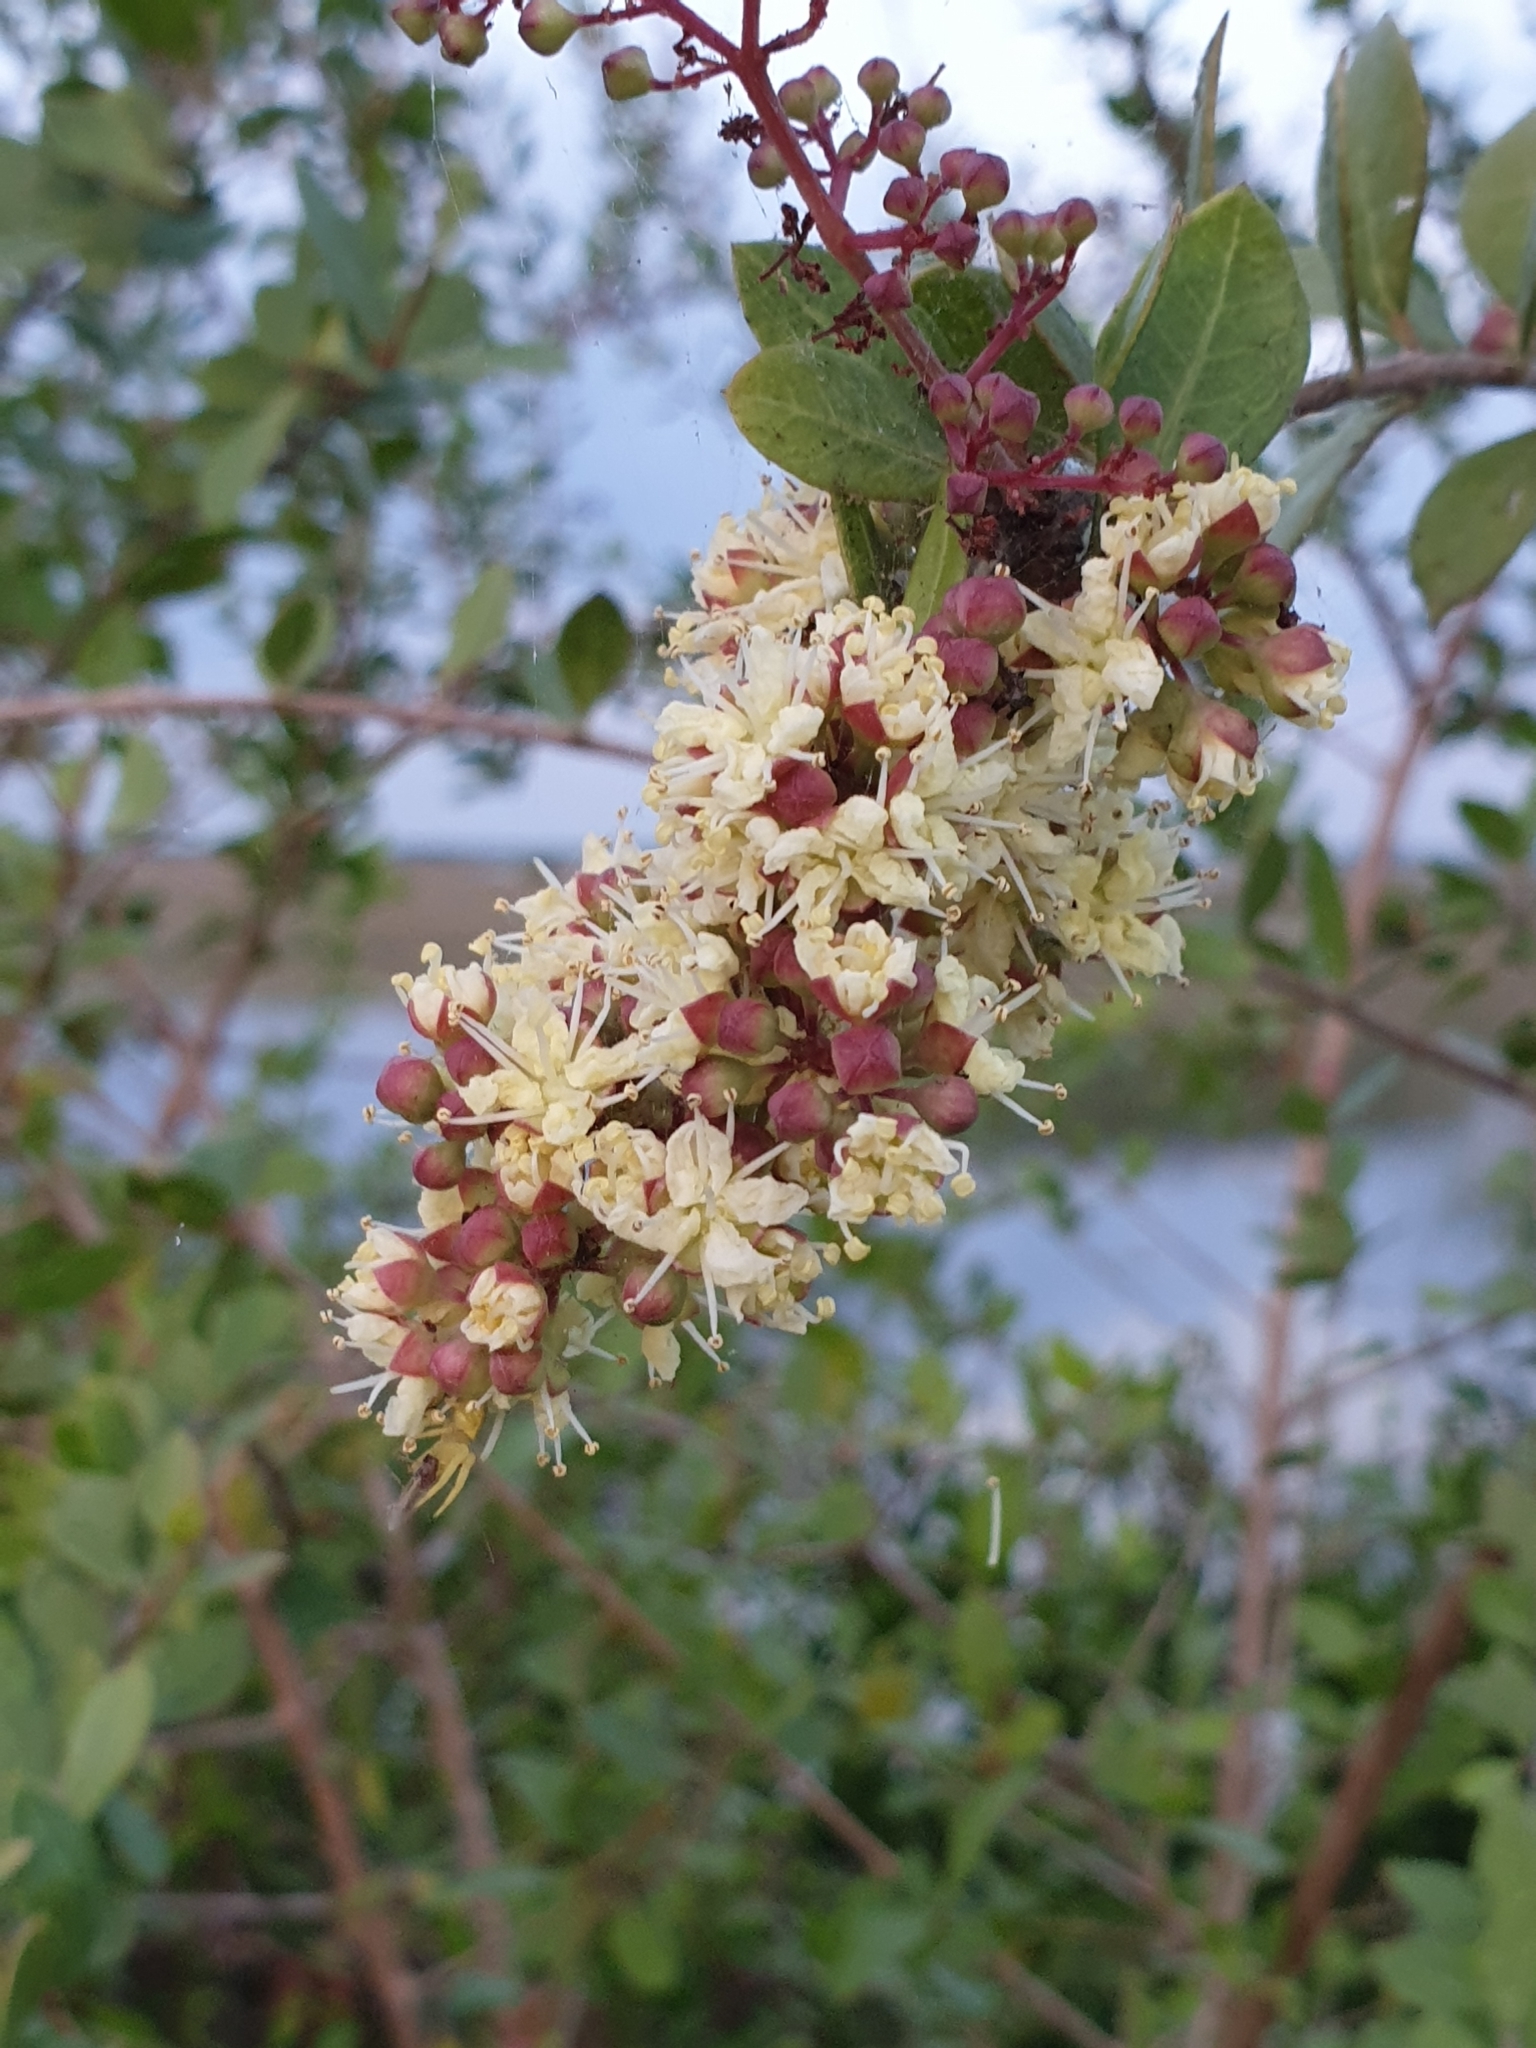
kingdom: Plantae
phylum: Tracheophyta
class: Magnoliopsida
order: Myrtales
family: Lythraceae
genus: Lawsonia
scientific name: Lawsonia inermis
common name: Henna
